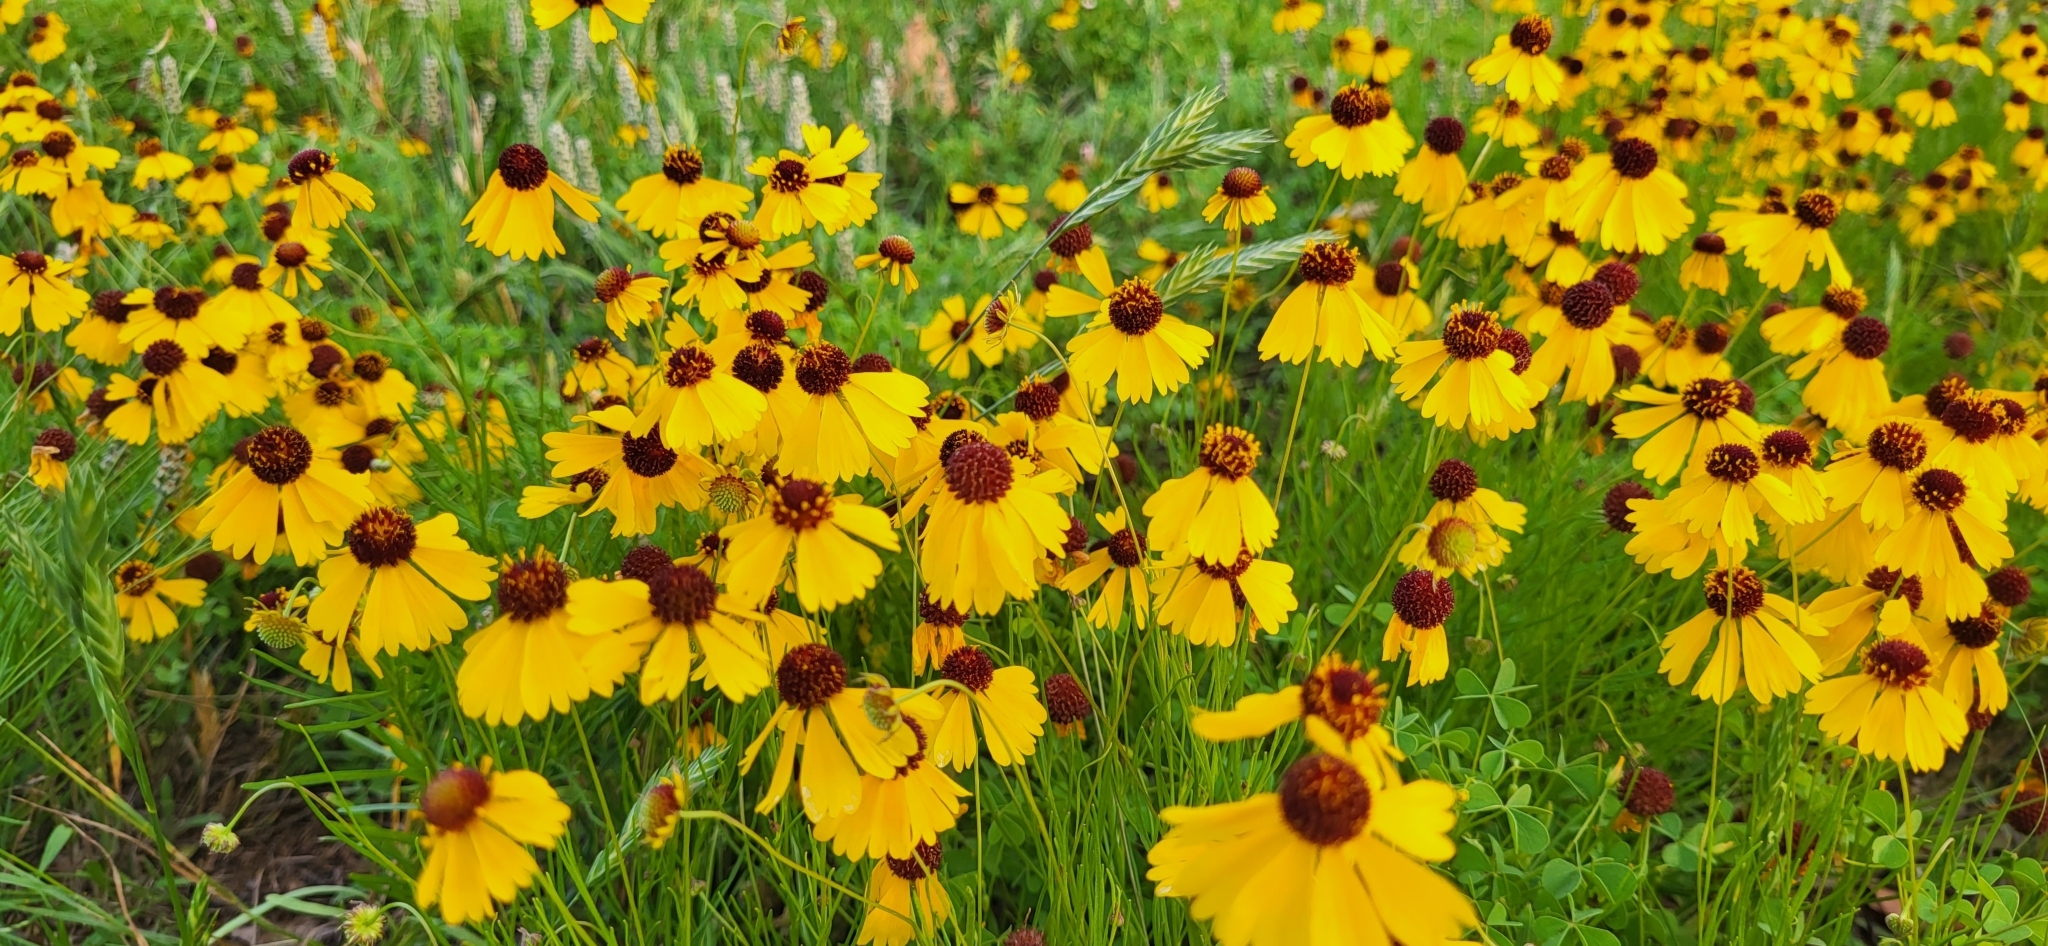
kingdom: Plantae
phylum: Tracheophyta
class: Magnoliopsida
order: Asterales
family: Asteraceae
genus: Helenium
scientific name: Helenium amarum
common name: Bitter sneezeweed
